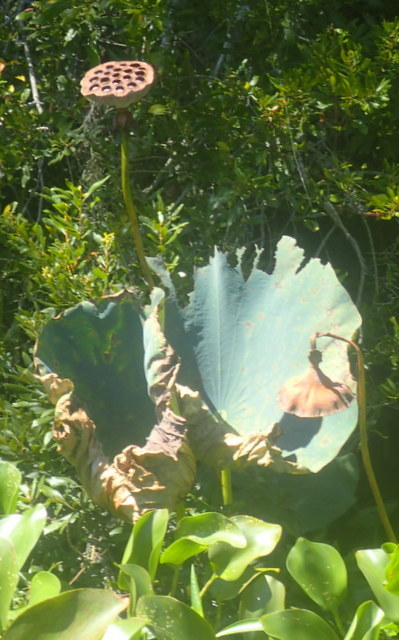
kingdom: Plantae
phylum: Tracheophyta
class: Magnoliopsida
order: Proteales
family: Nelumbonaceae
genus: Nelumbo
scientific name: Nelumbo lutea
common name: American lotus
